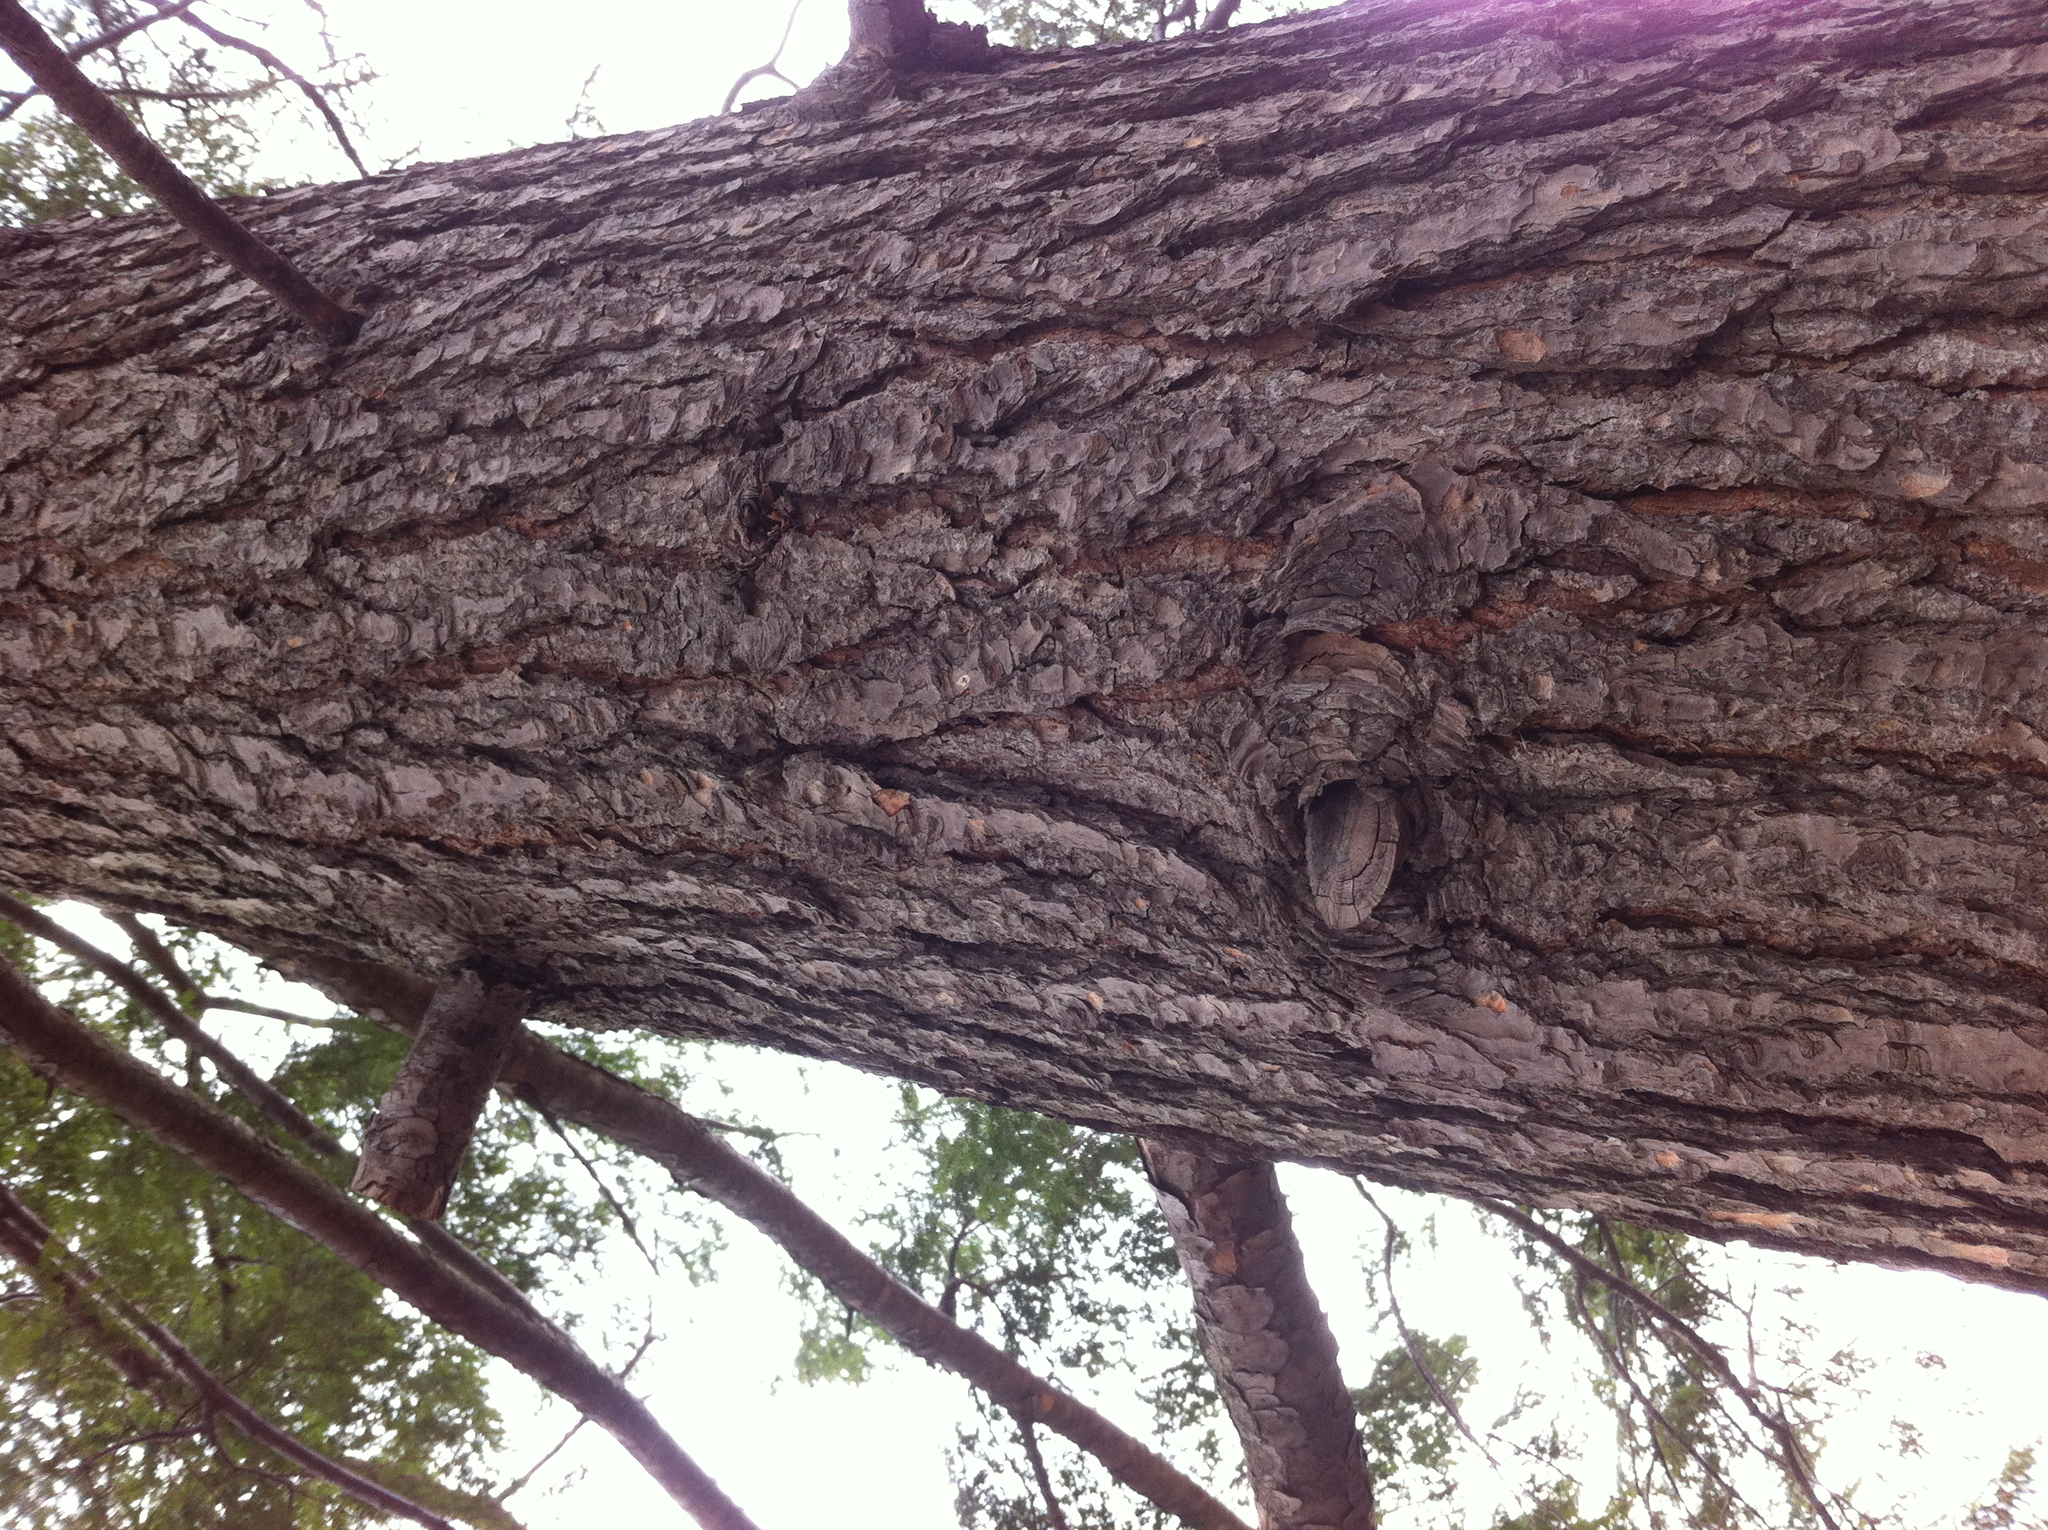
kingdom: Plantae
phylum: Tracheophyta
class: Pinopsida
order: Pinales
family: Pinaceae
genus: Tsuga
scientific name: Tsuga canadensis
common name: Eastern hemlock
